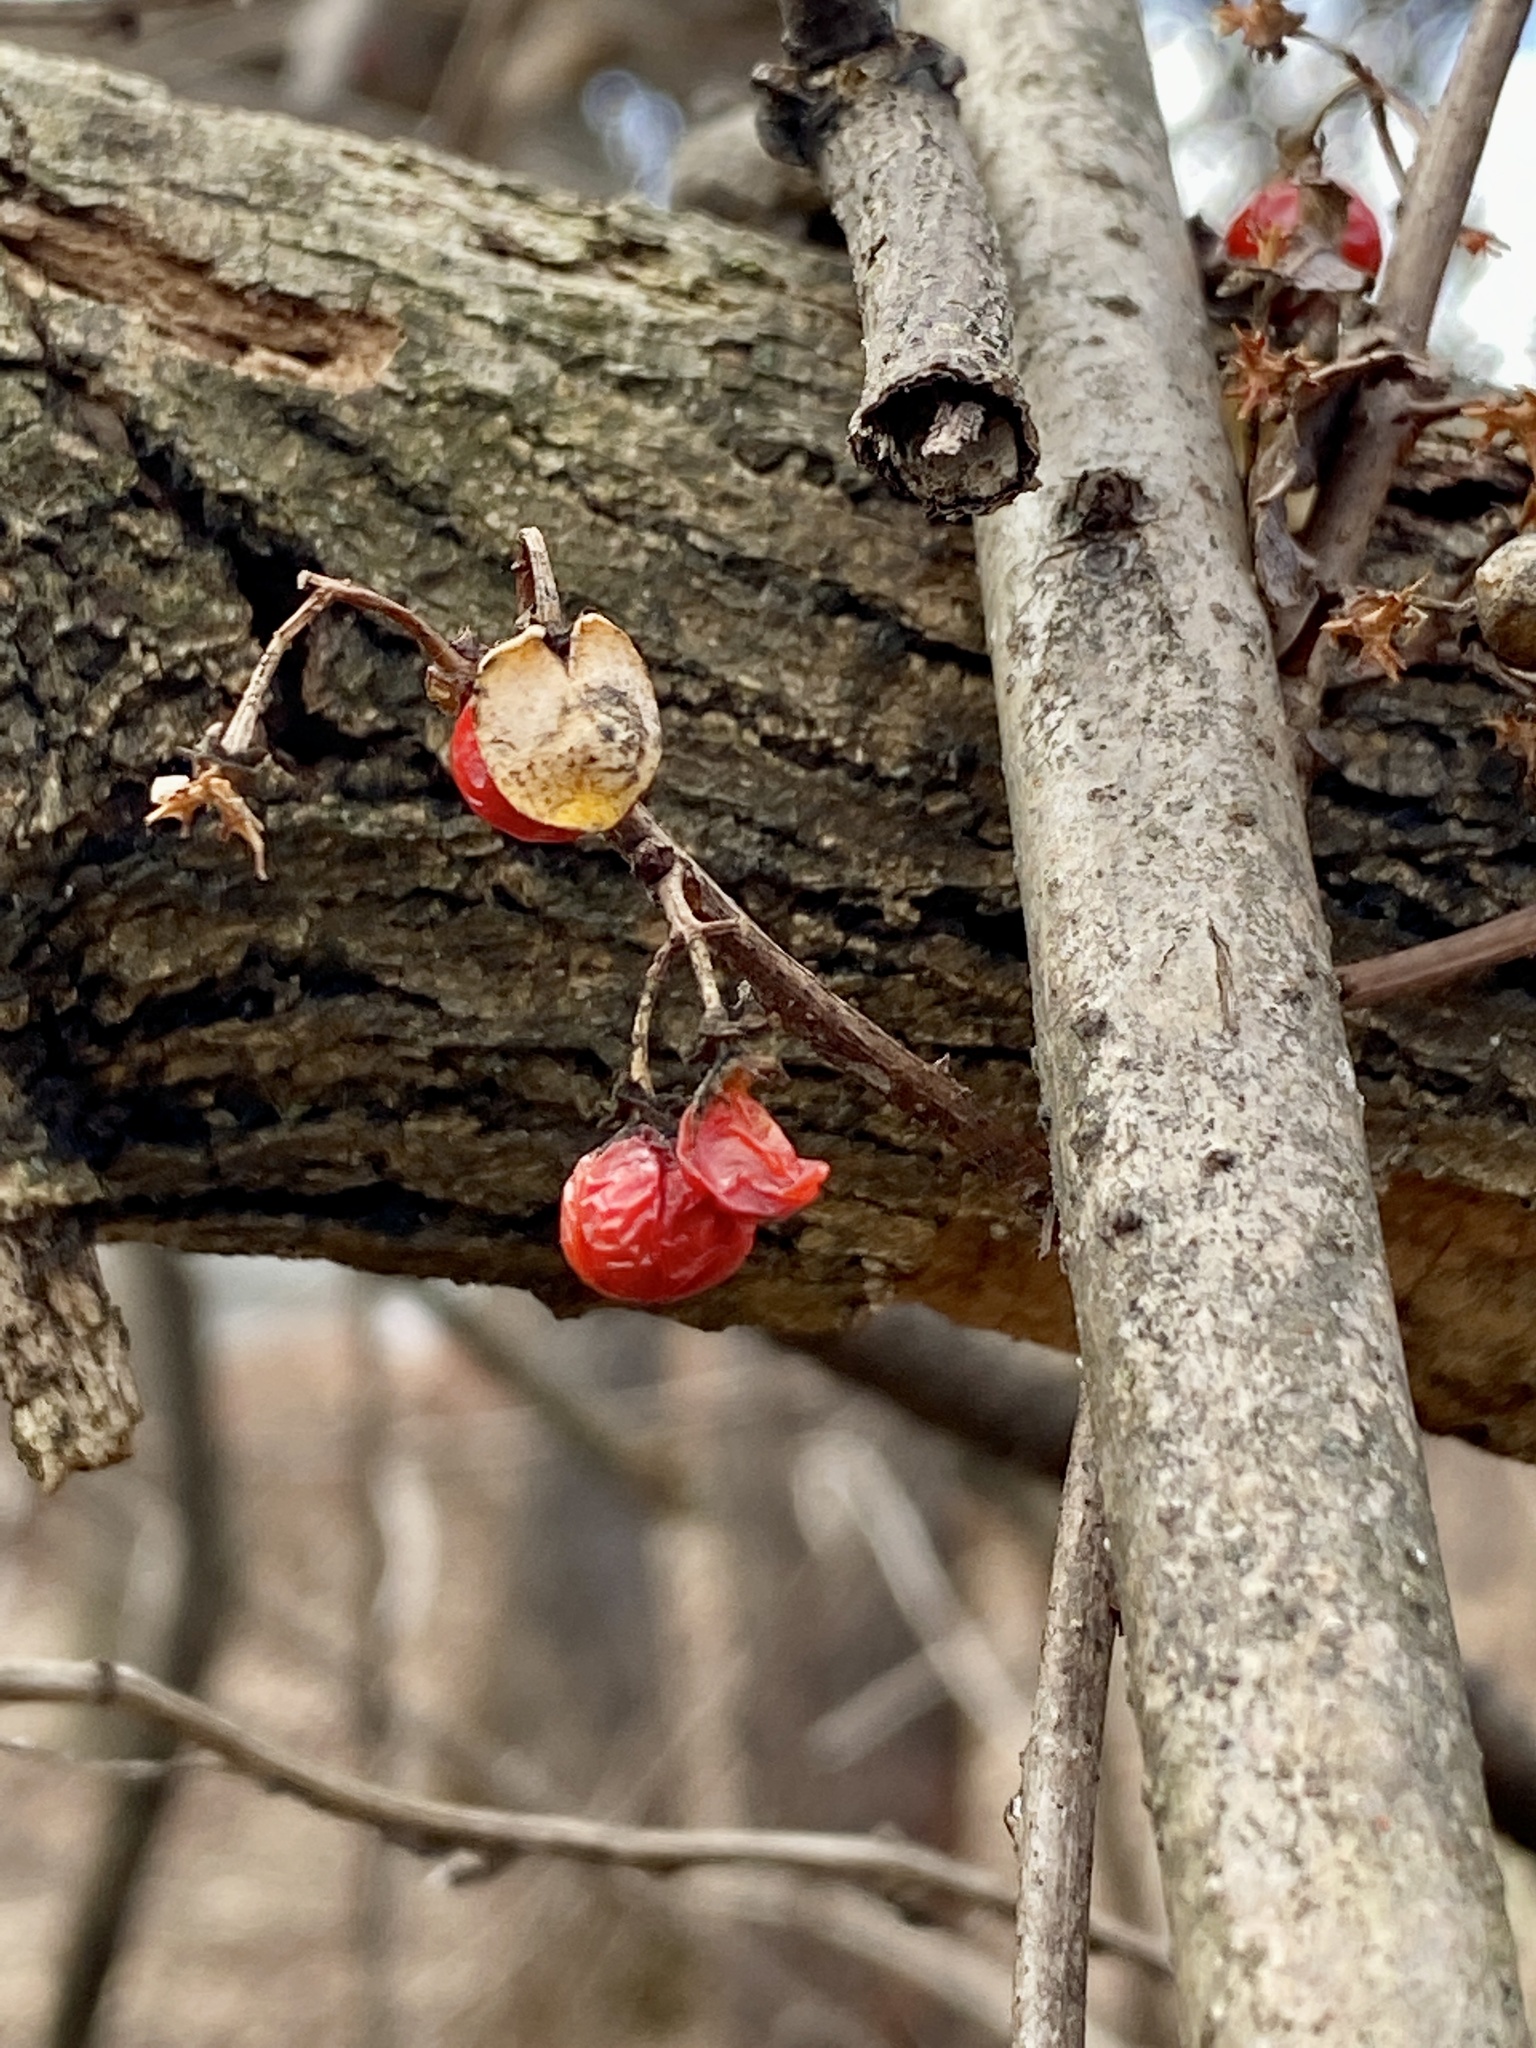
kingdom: Plantae
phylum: Tracheophyta
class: Magnoliopsida
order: Celastrales
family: Celastraceae
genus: Celastrus
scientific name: Celastrus orbiculatus
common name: Oriental bittersweet
